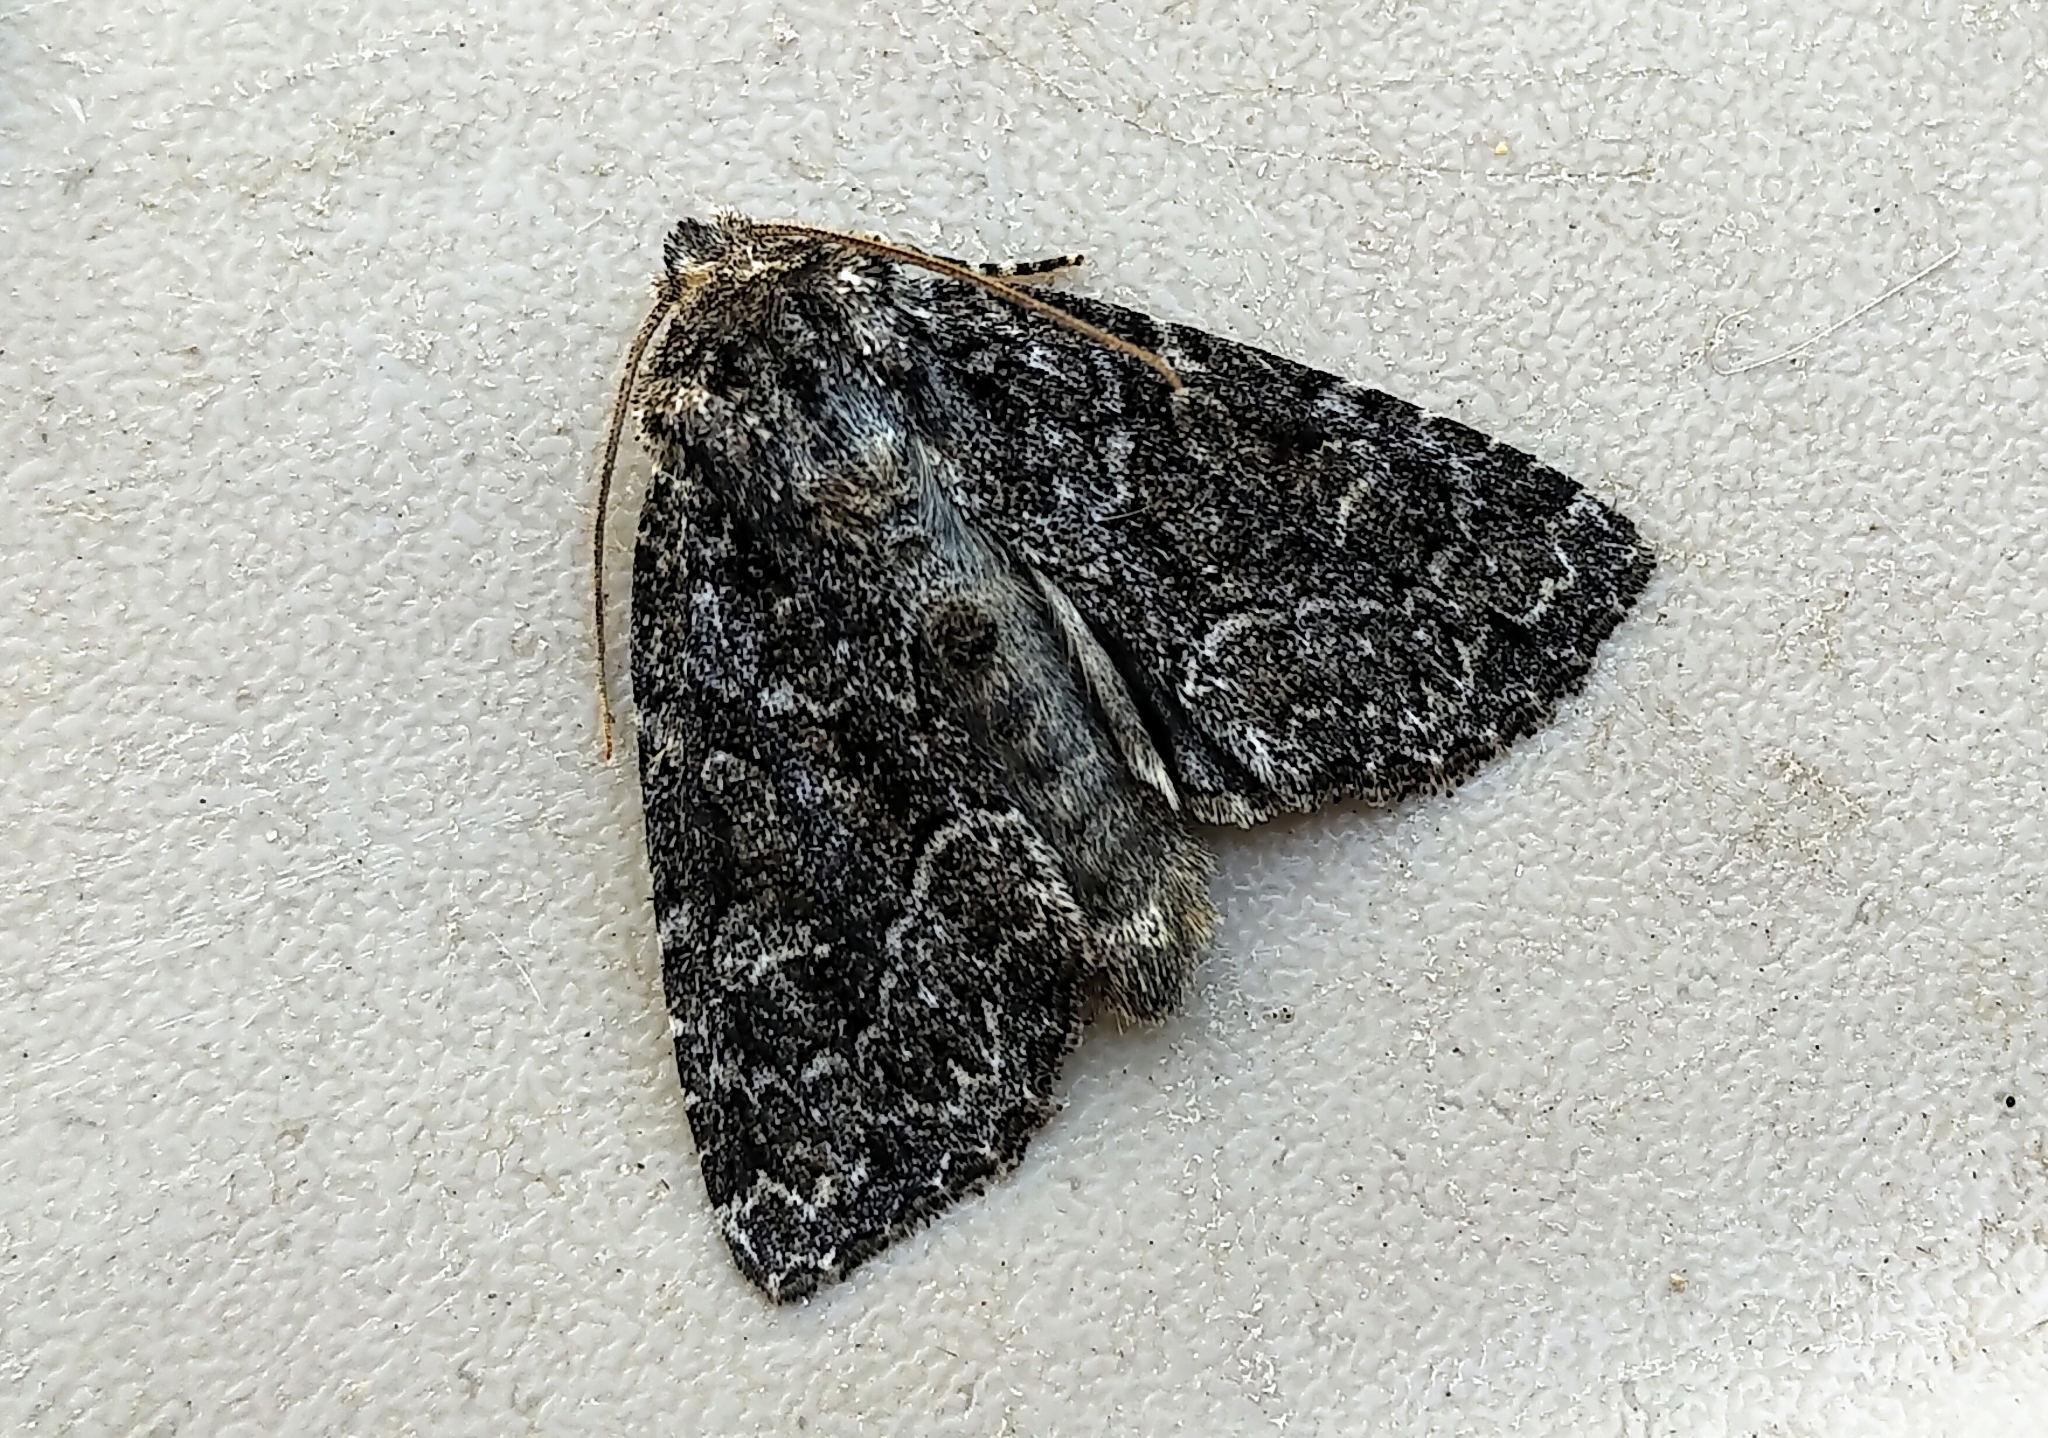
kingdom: Animalia
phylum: Arthropoda
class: Insecta
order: Lepidoptera
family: Noctuidae
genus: Platypolia
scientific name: Platypolia mactata
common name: Adorable brocade moth
